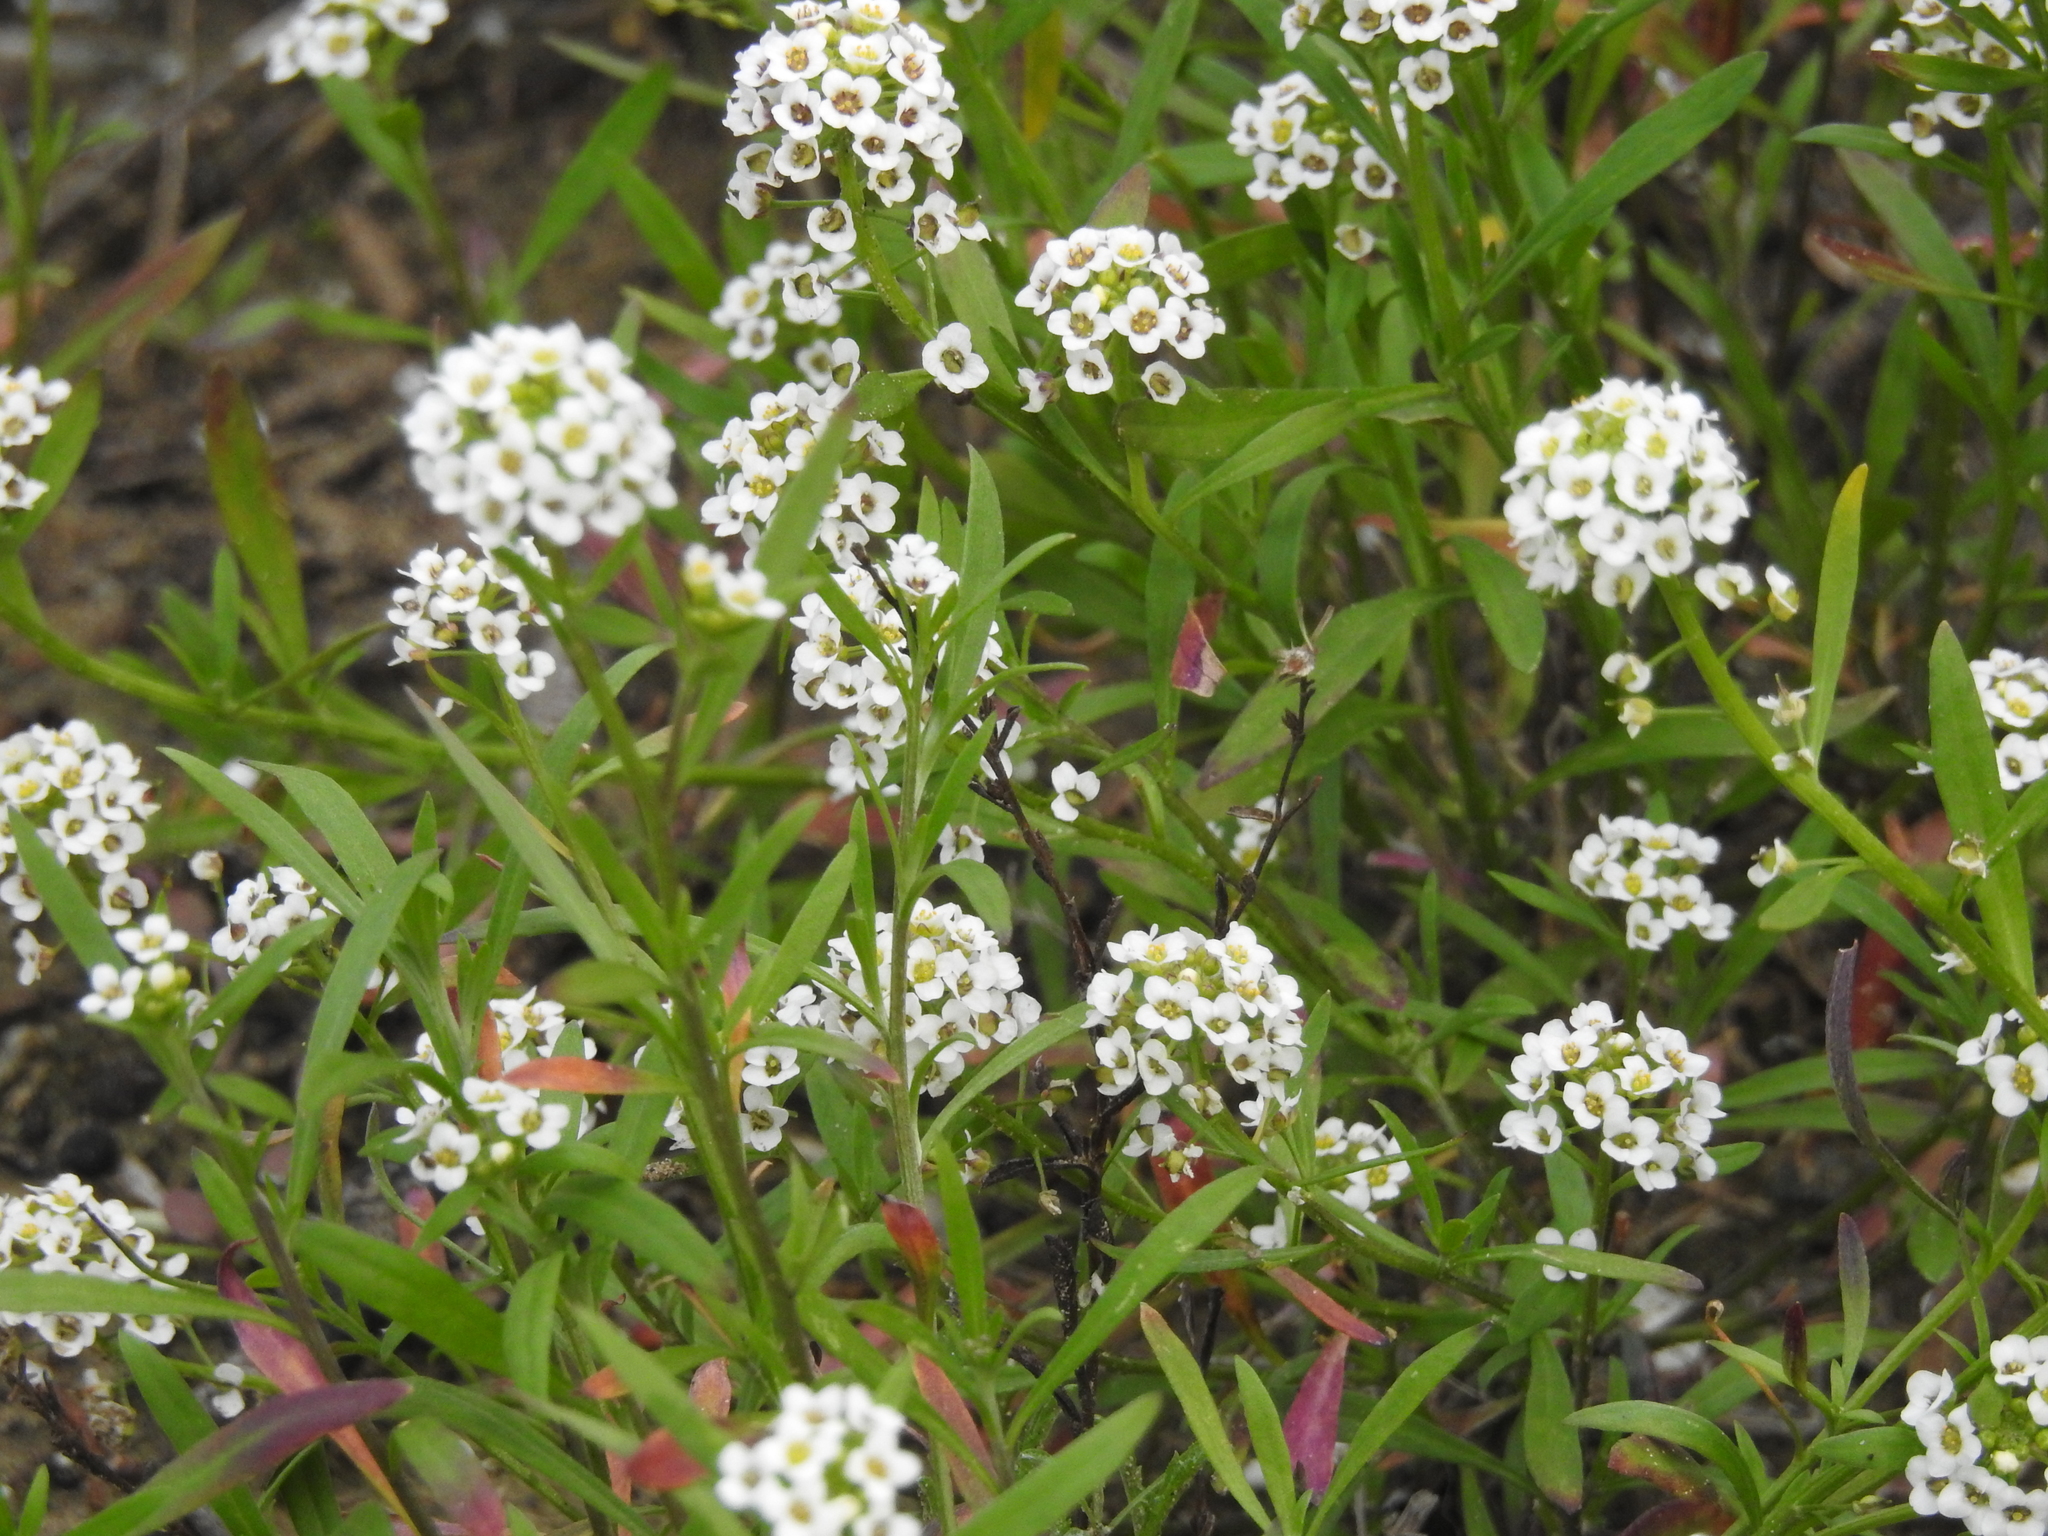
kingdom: Plantae
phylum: Tracheophyta
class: Magnoliopsida
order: Brassicales
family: Brassicaceae
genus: Lobularia
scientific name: Lobularia maritima
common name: Sweet alison
